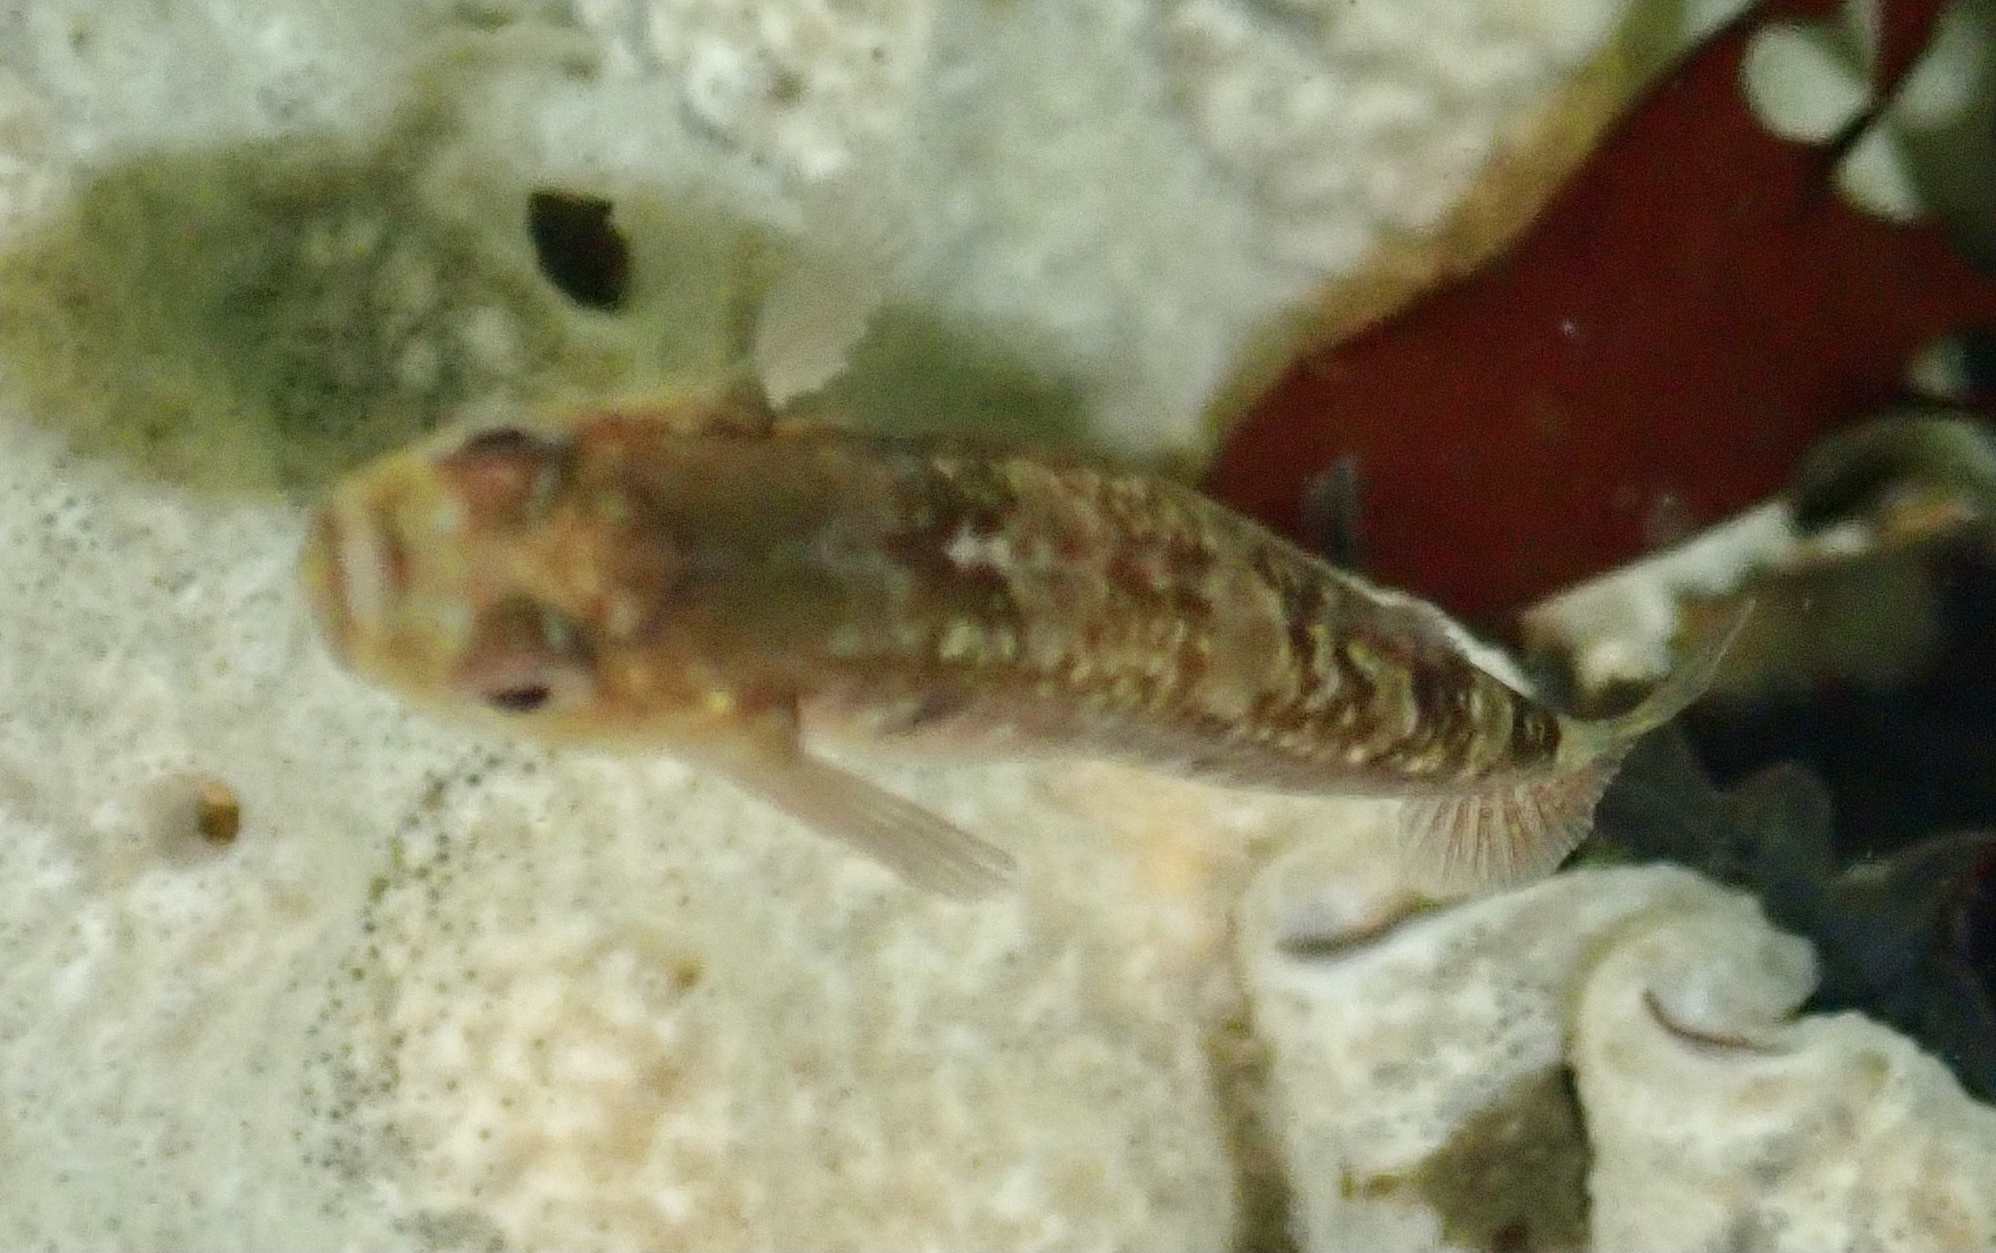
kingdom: Animalia
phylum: Chordata
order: Perciformes
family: Gobiidae
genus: Gobiusculus
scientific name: Gobiusculus flavescens
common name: Two-spotted goby
